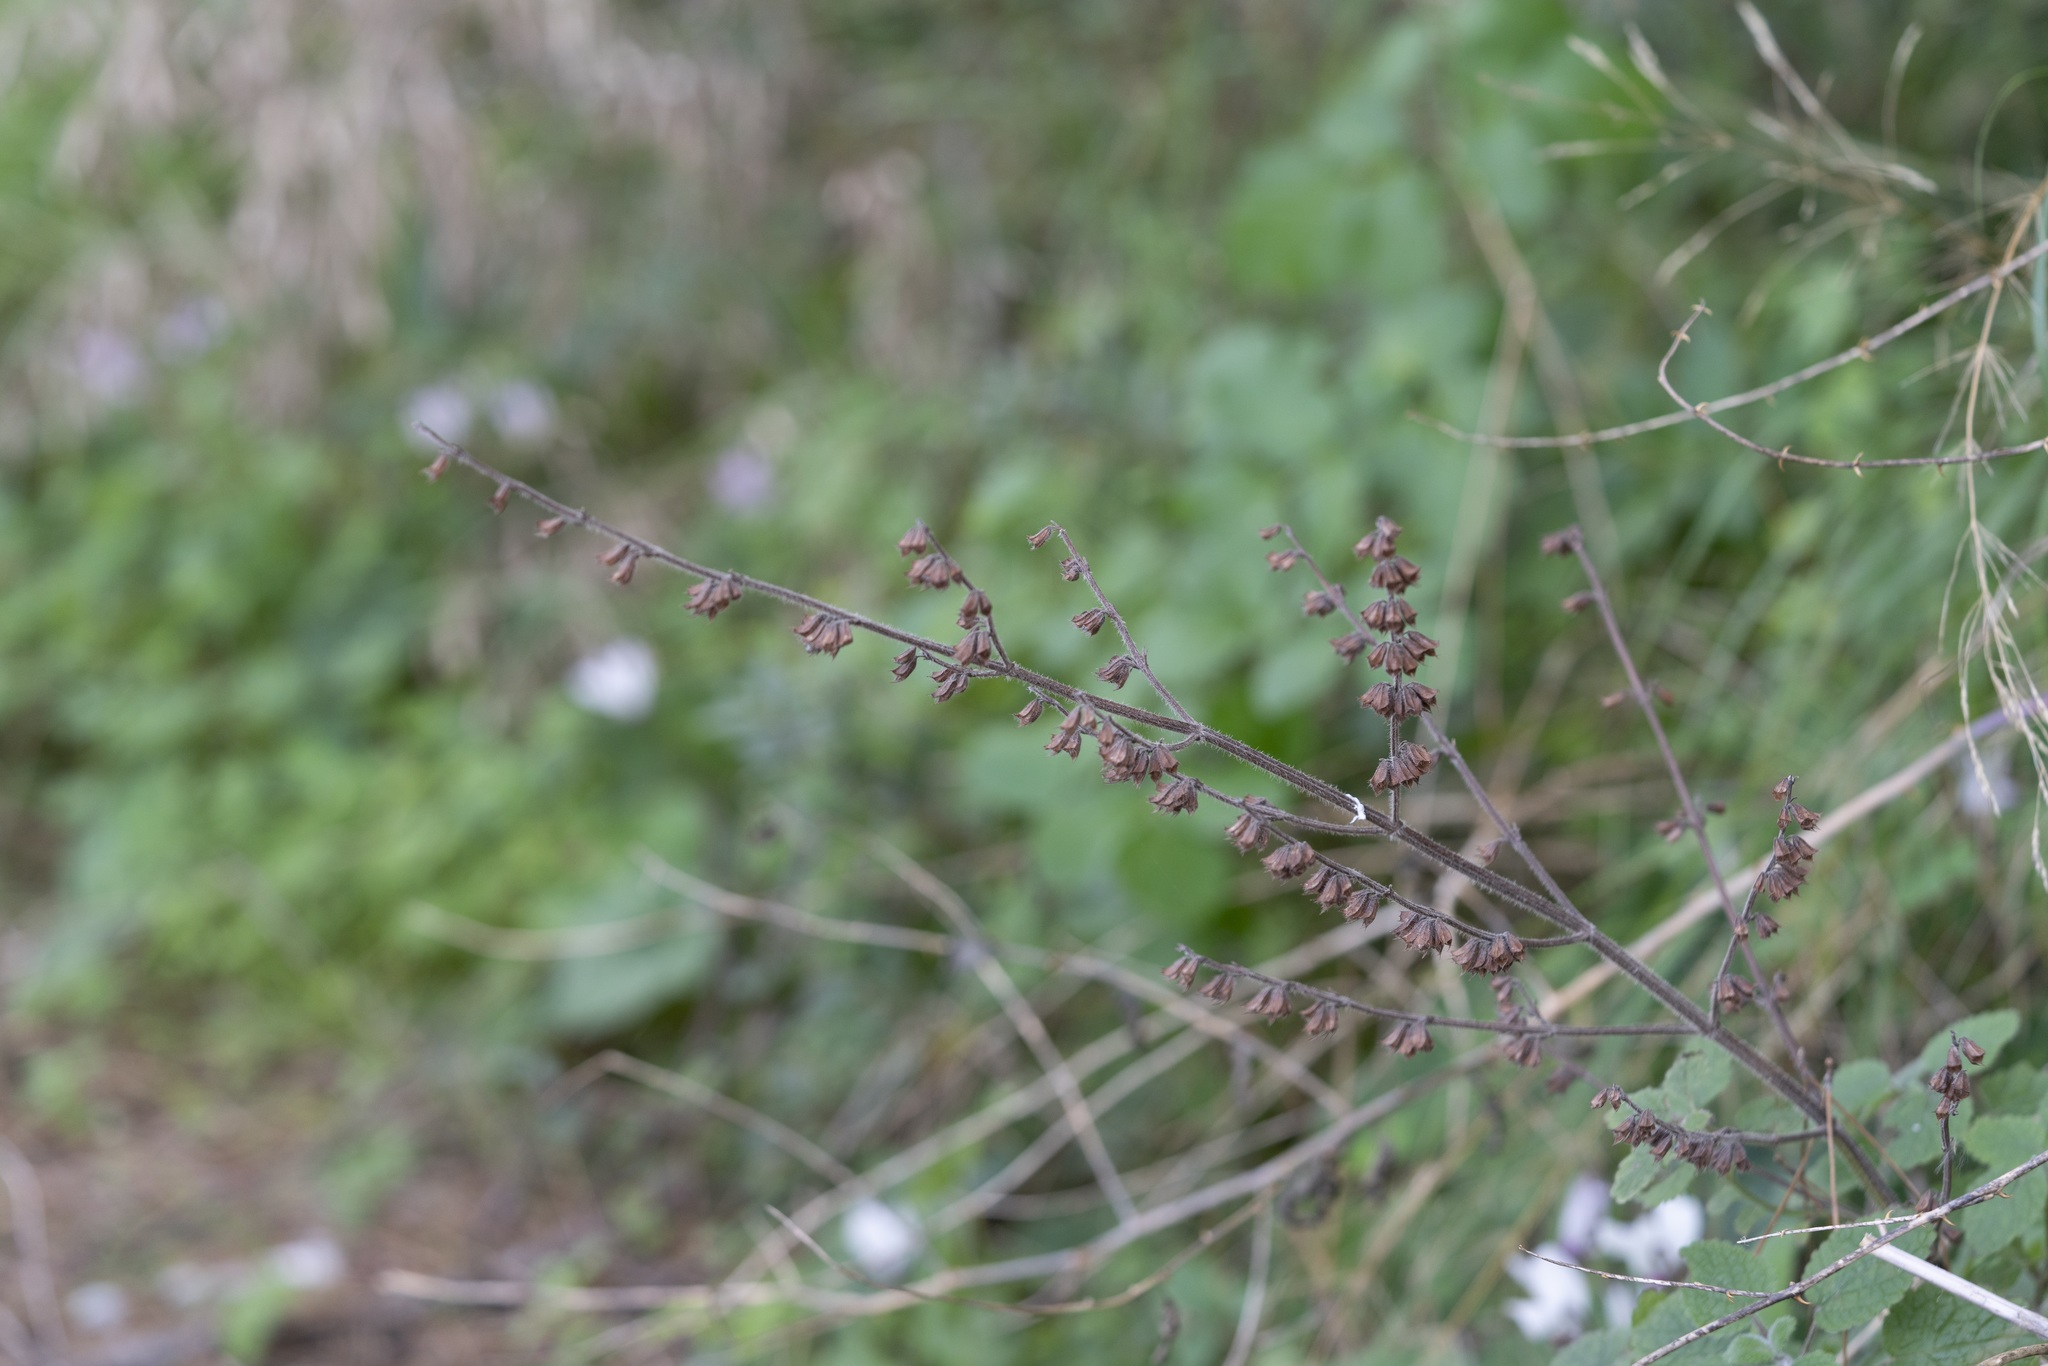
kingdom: Plantae
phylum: Tracheophyta
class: Magnoliopsida
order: Lamiales
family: Lamiaceae
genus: Melissa
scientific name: Melissa officinalis
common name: Balm
